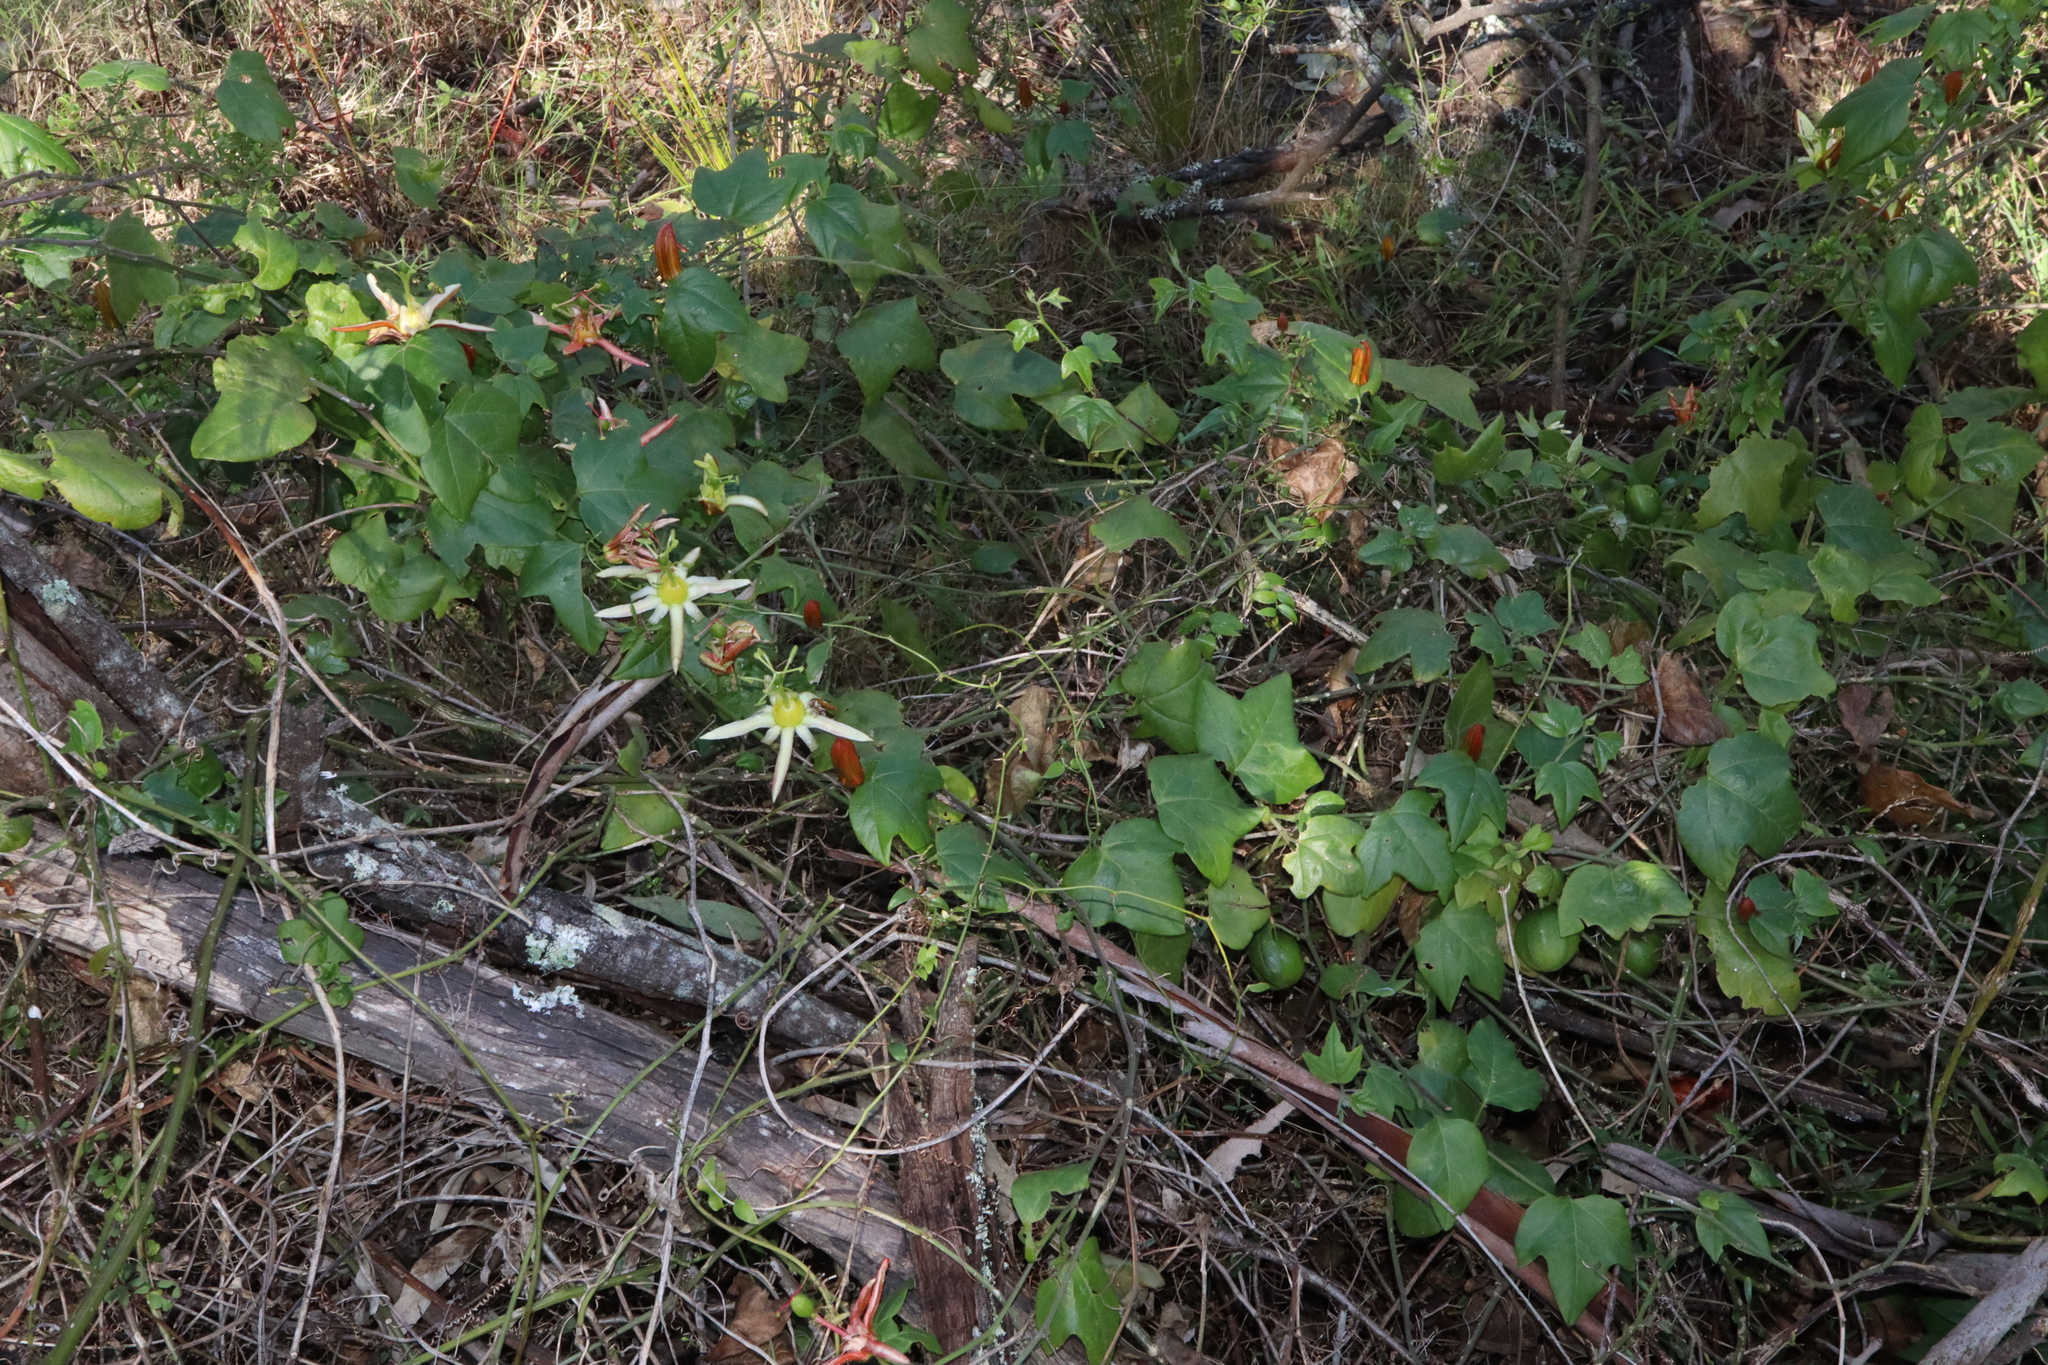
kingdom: Plantae
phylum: Tracheophyta
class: Magnoliopsida
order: Malpighiales
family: Passifloraceae
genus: Passiflora
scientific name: Passiflora herbertiana
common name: Yellow passionflower
